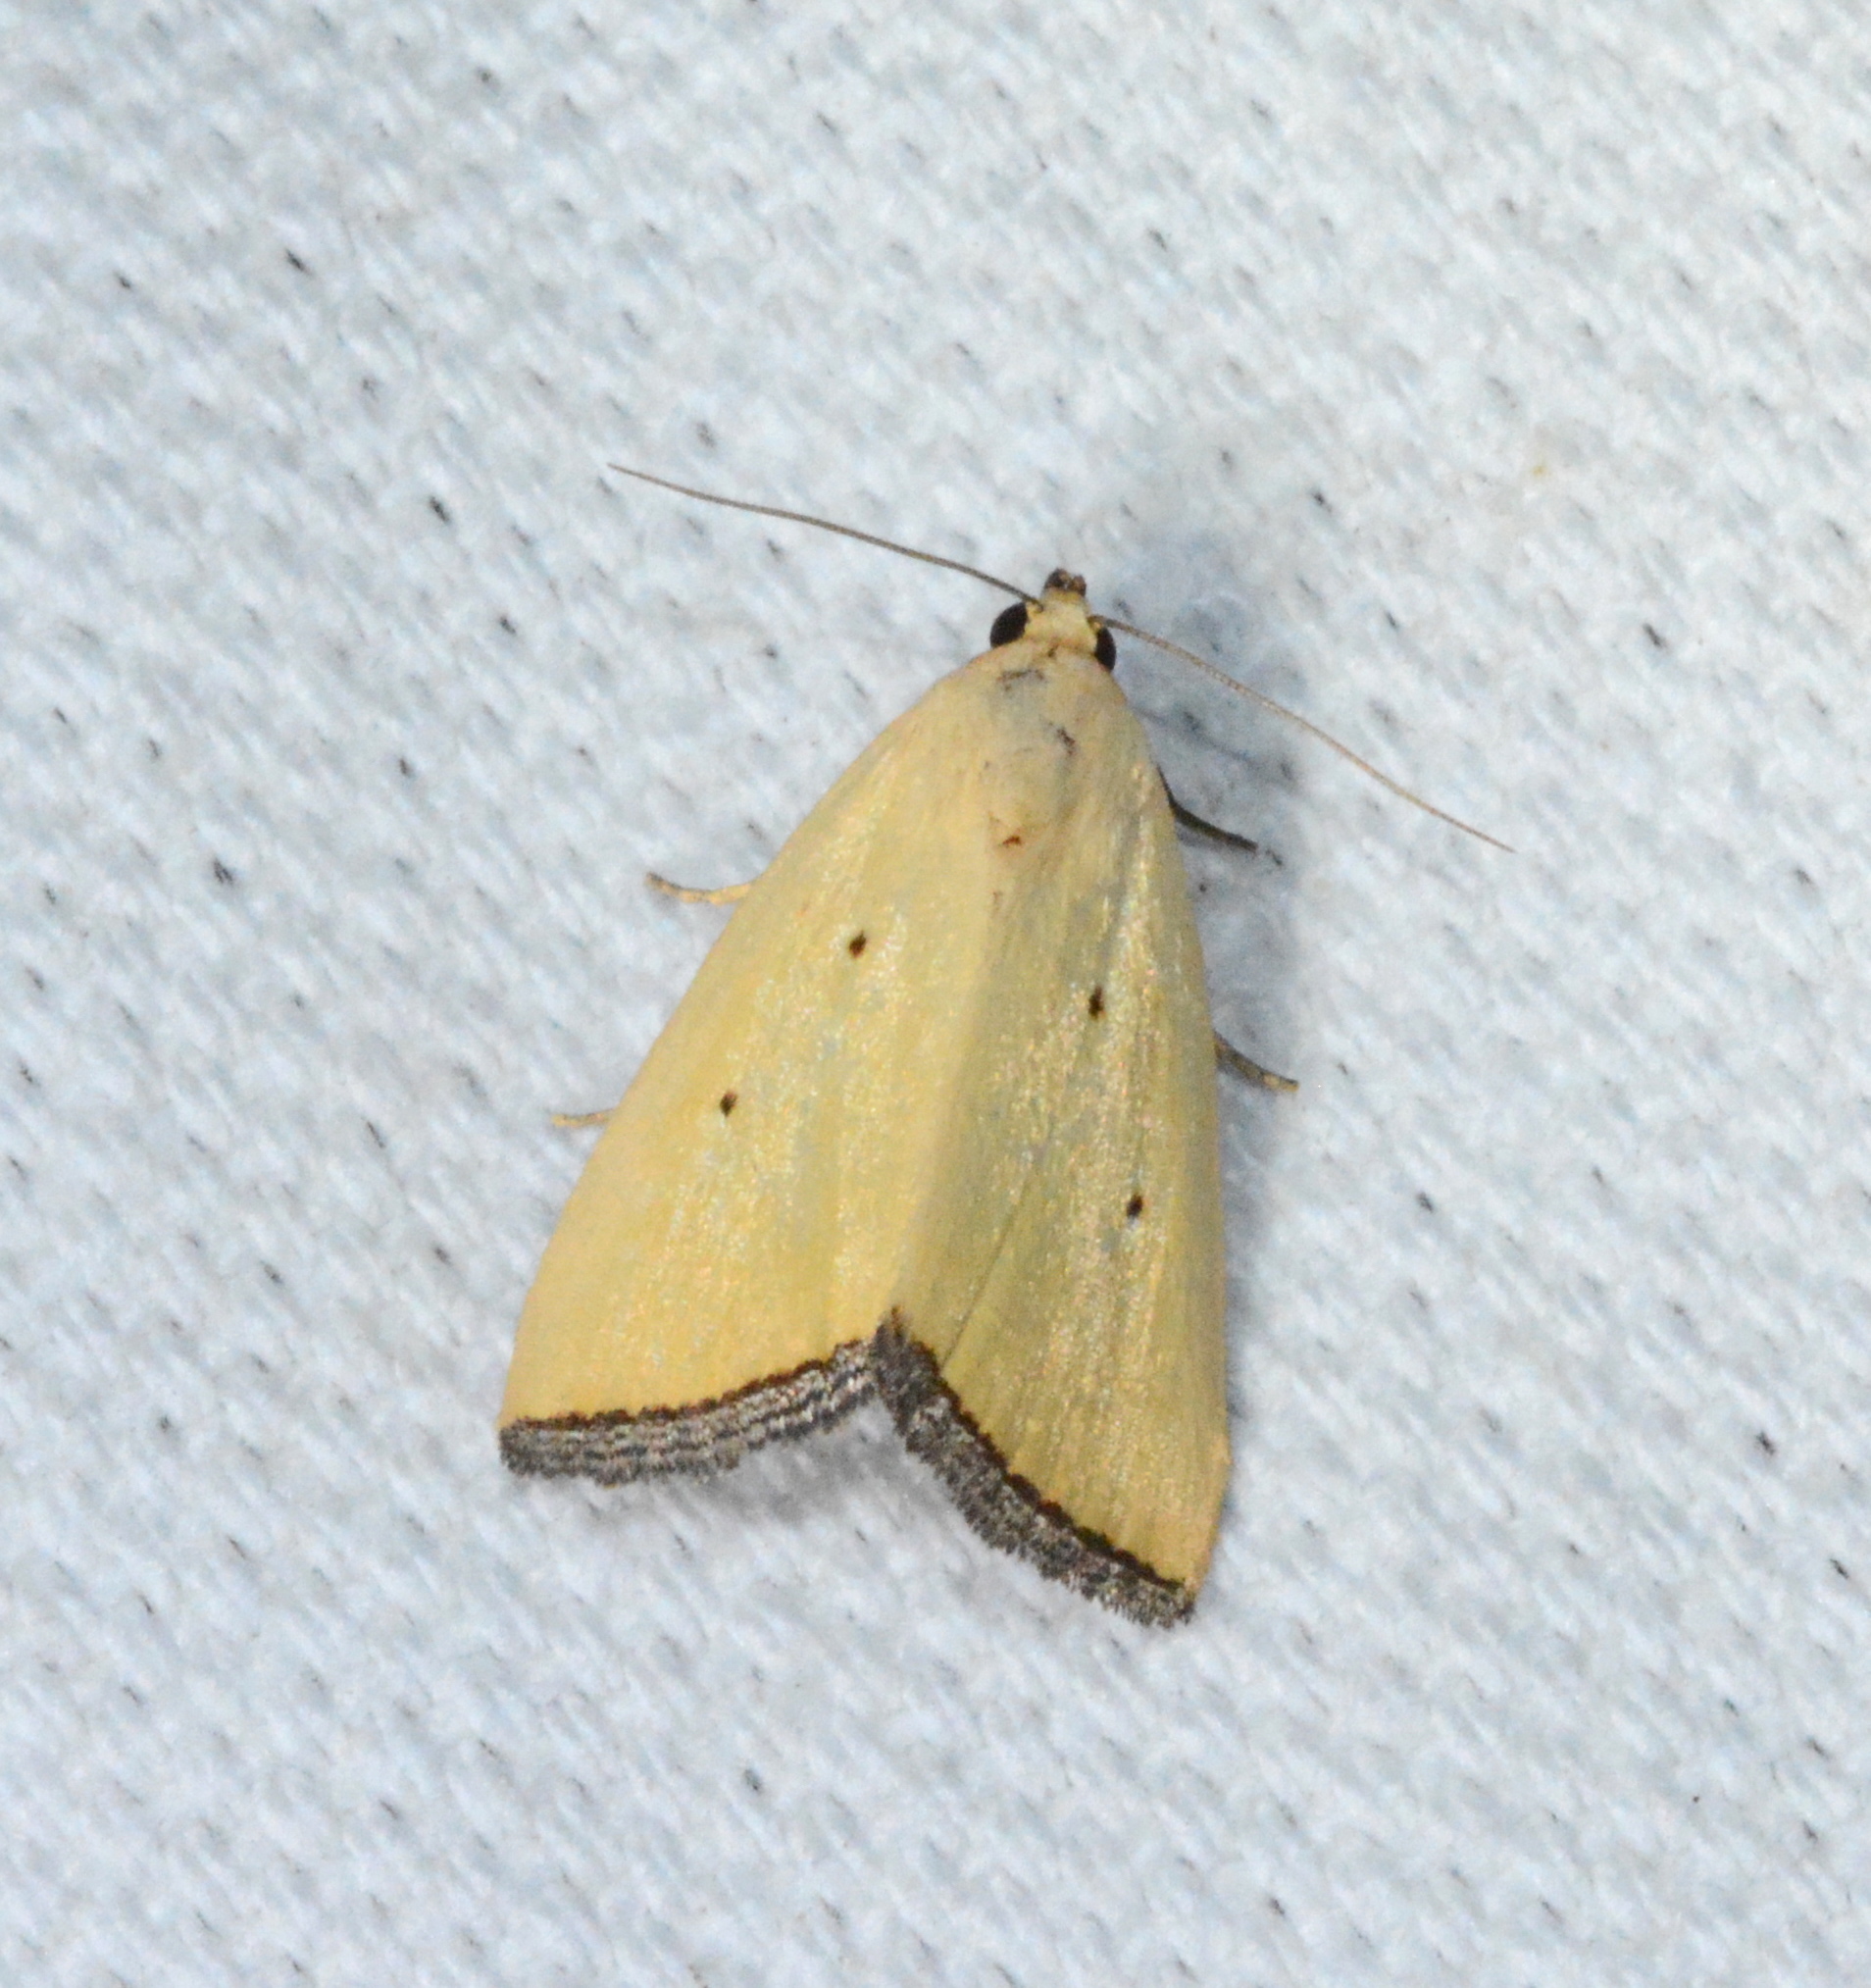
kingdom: Animalia
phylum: Arthropoda
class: Insecta
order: Lepidoptera
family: Noctuidae
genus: Marimatha
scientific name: Marimatha nigrofimbria
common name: Black-bordered lemon moth
